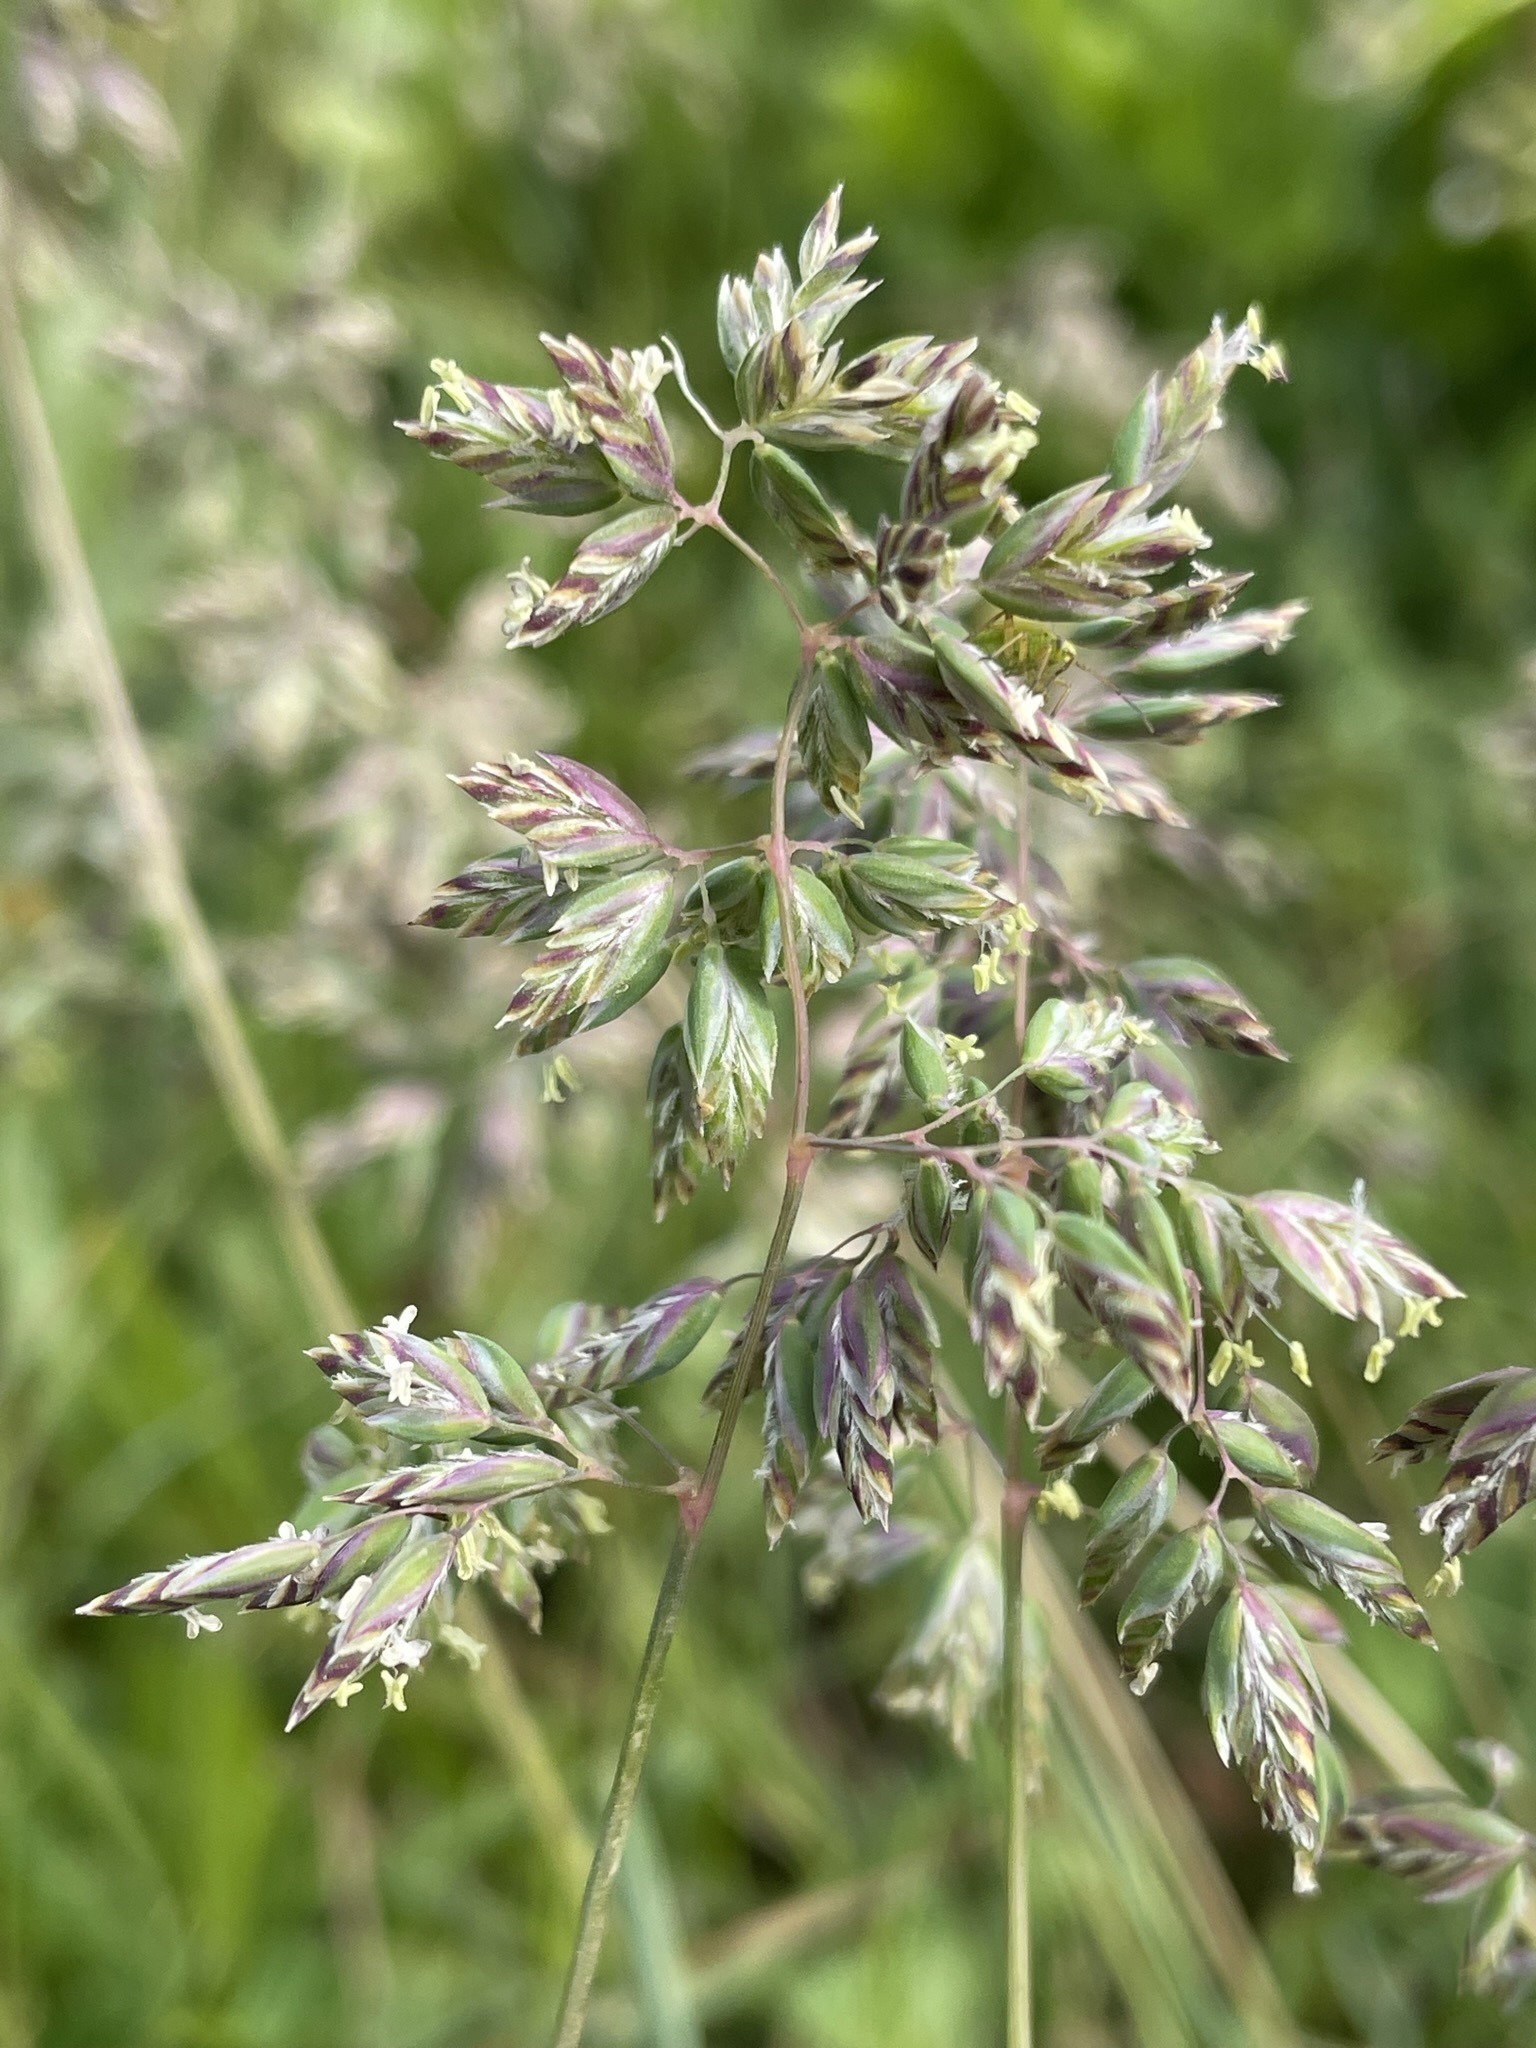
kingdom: Plantae
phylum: Tracheophyta
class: Liliopsida
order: Poales
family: Poaceae
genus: Poa
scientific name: Poa alpina
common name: Alpine bluegrass
